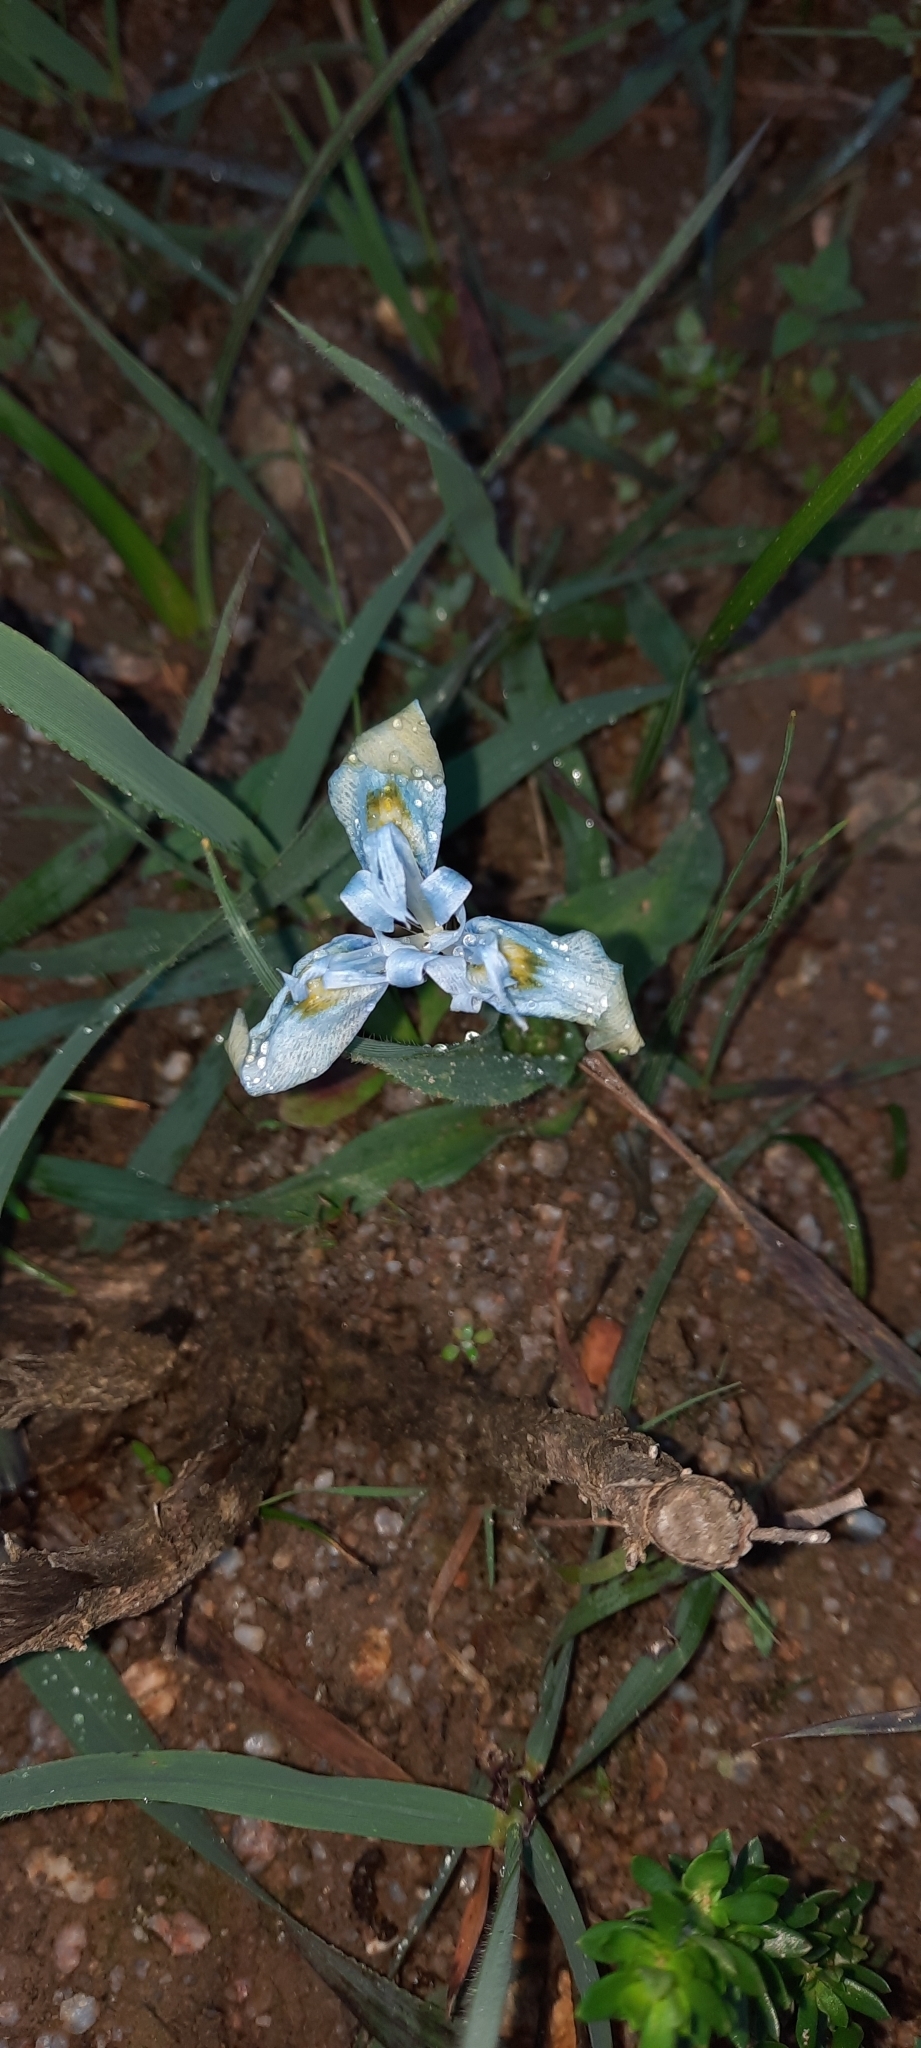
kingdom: Plantae
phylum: Tracheophyta
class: Liliopsida
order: Asparagales
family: Iridaceae
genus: Moraea
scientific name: Moraea ciliata
